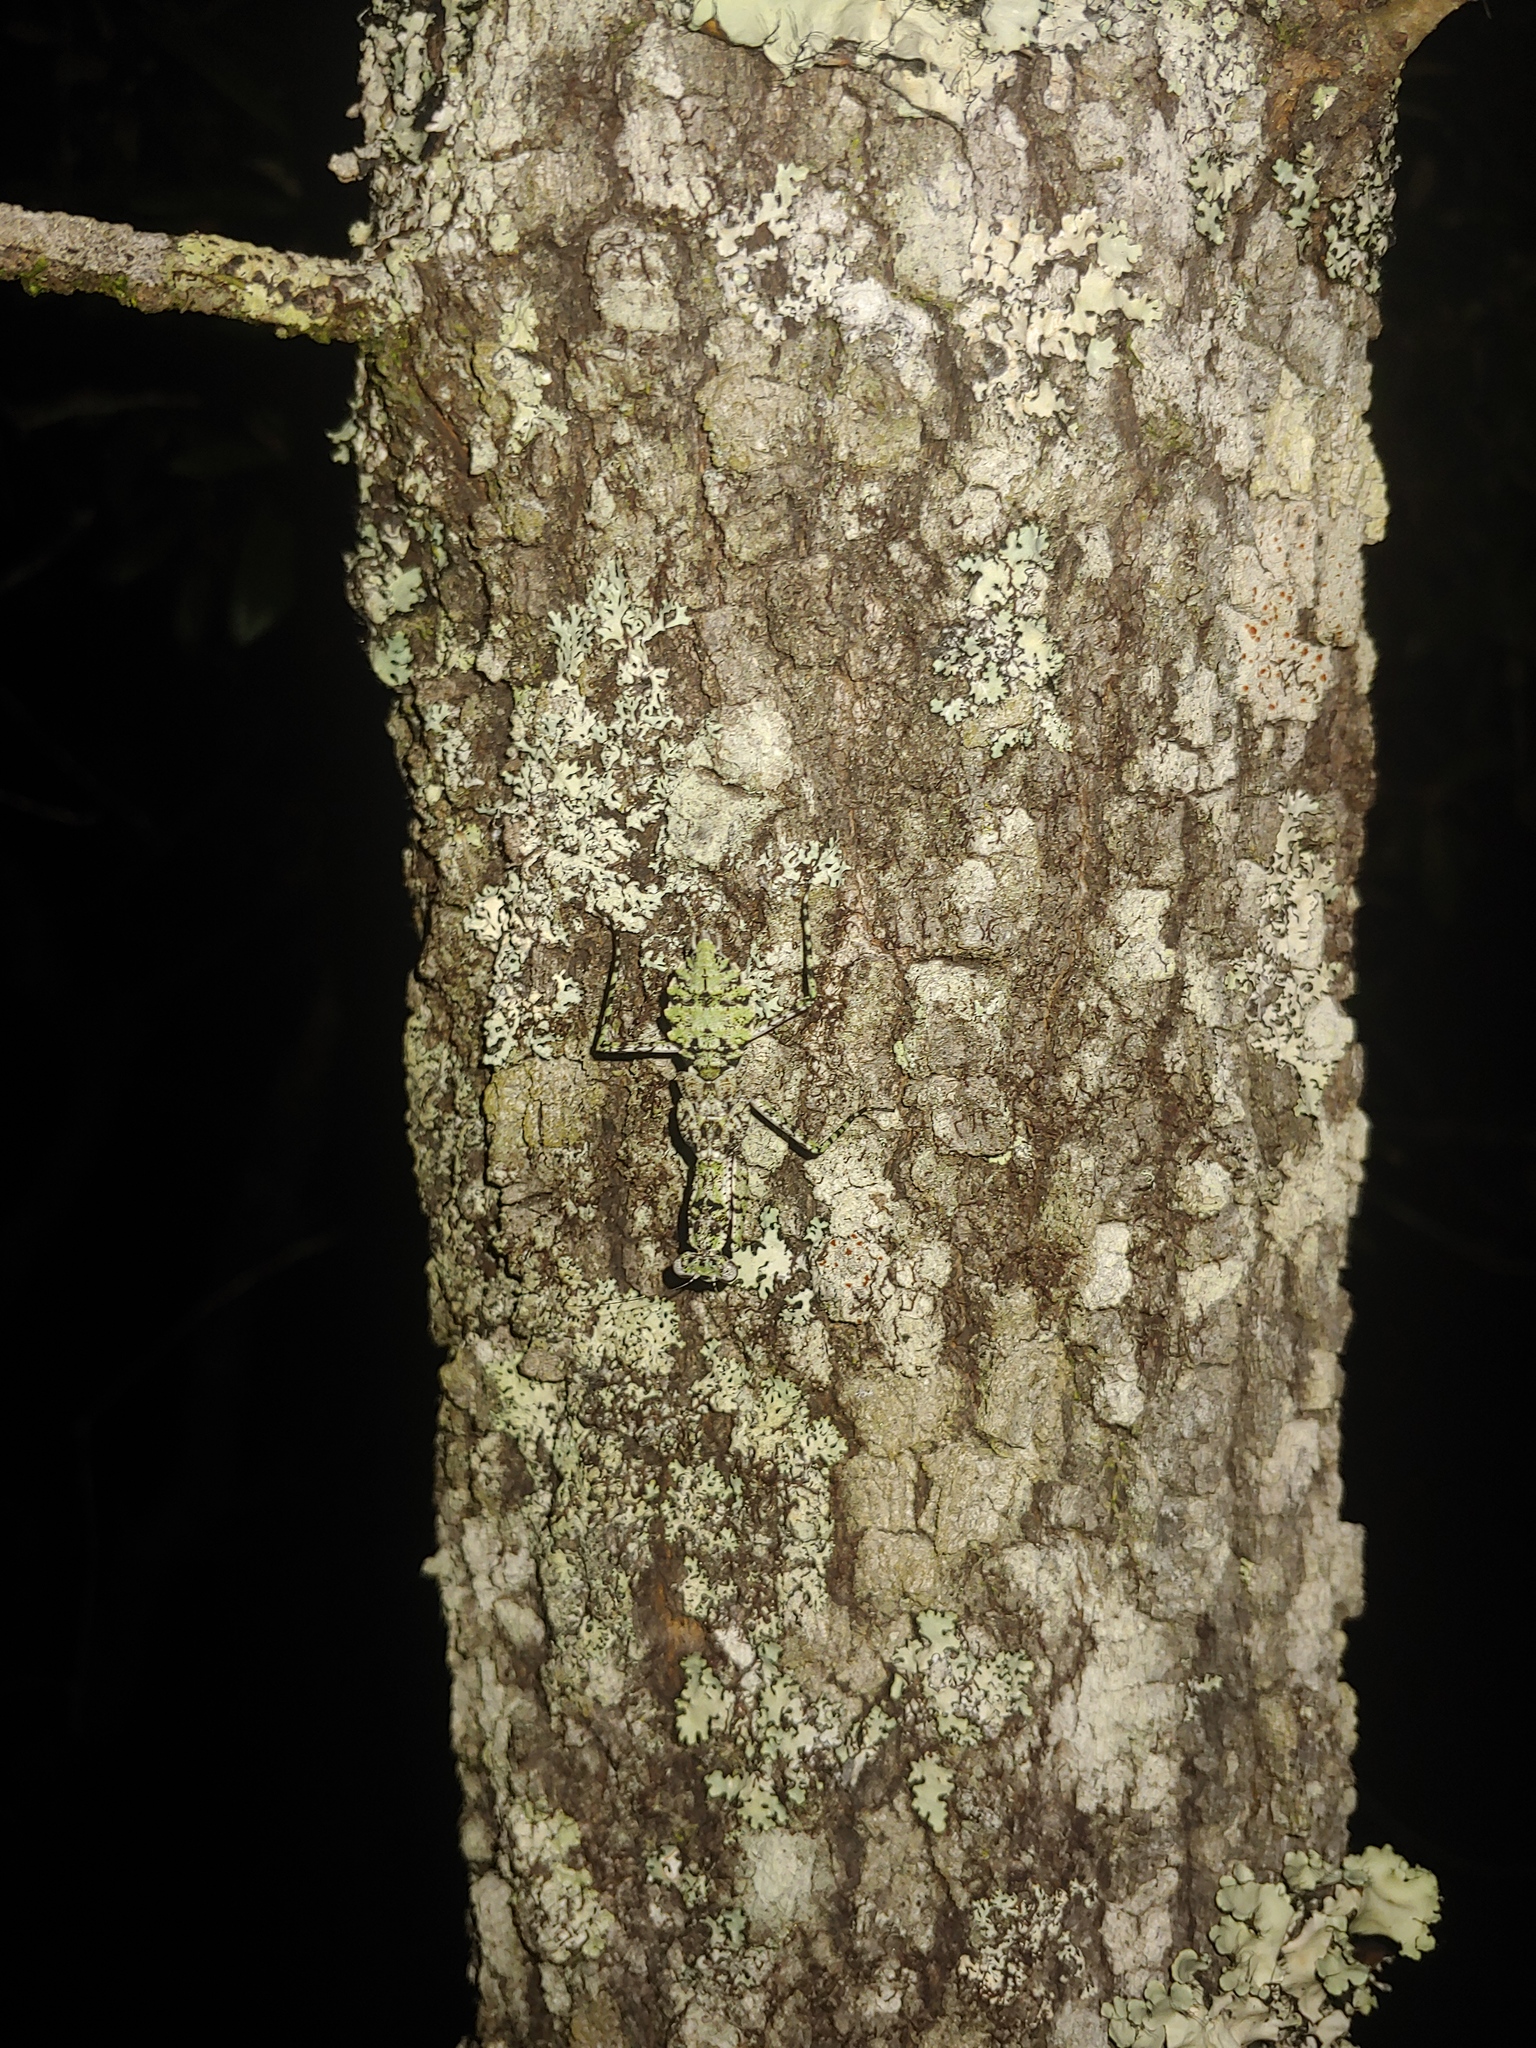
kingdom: Animalia
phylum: Arthropoda
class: Insecta
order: Mantodea
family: Epaphroditidae
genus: Gonatista
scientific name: Gonatista grisea
